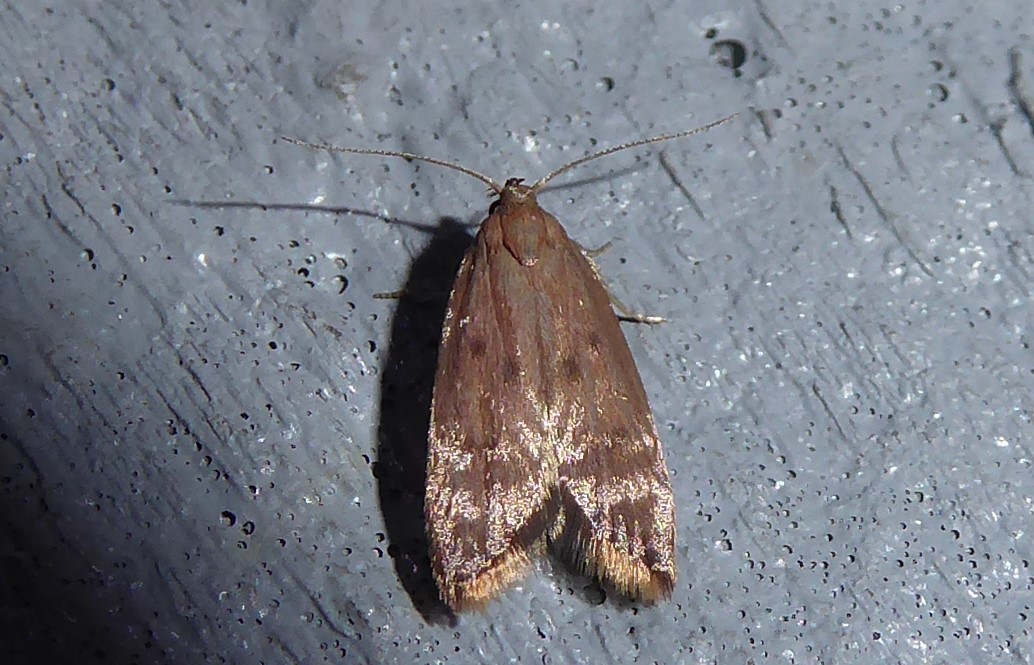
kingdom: Animalia
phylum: Arthropoda
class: Insecta
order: Lepidoptera
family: Oecophoridae
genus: Tachystola
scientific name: Tachystola acroxantha
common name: Ruddy streak
